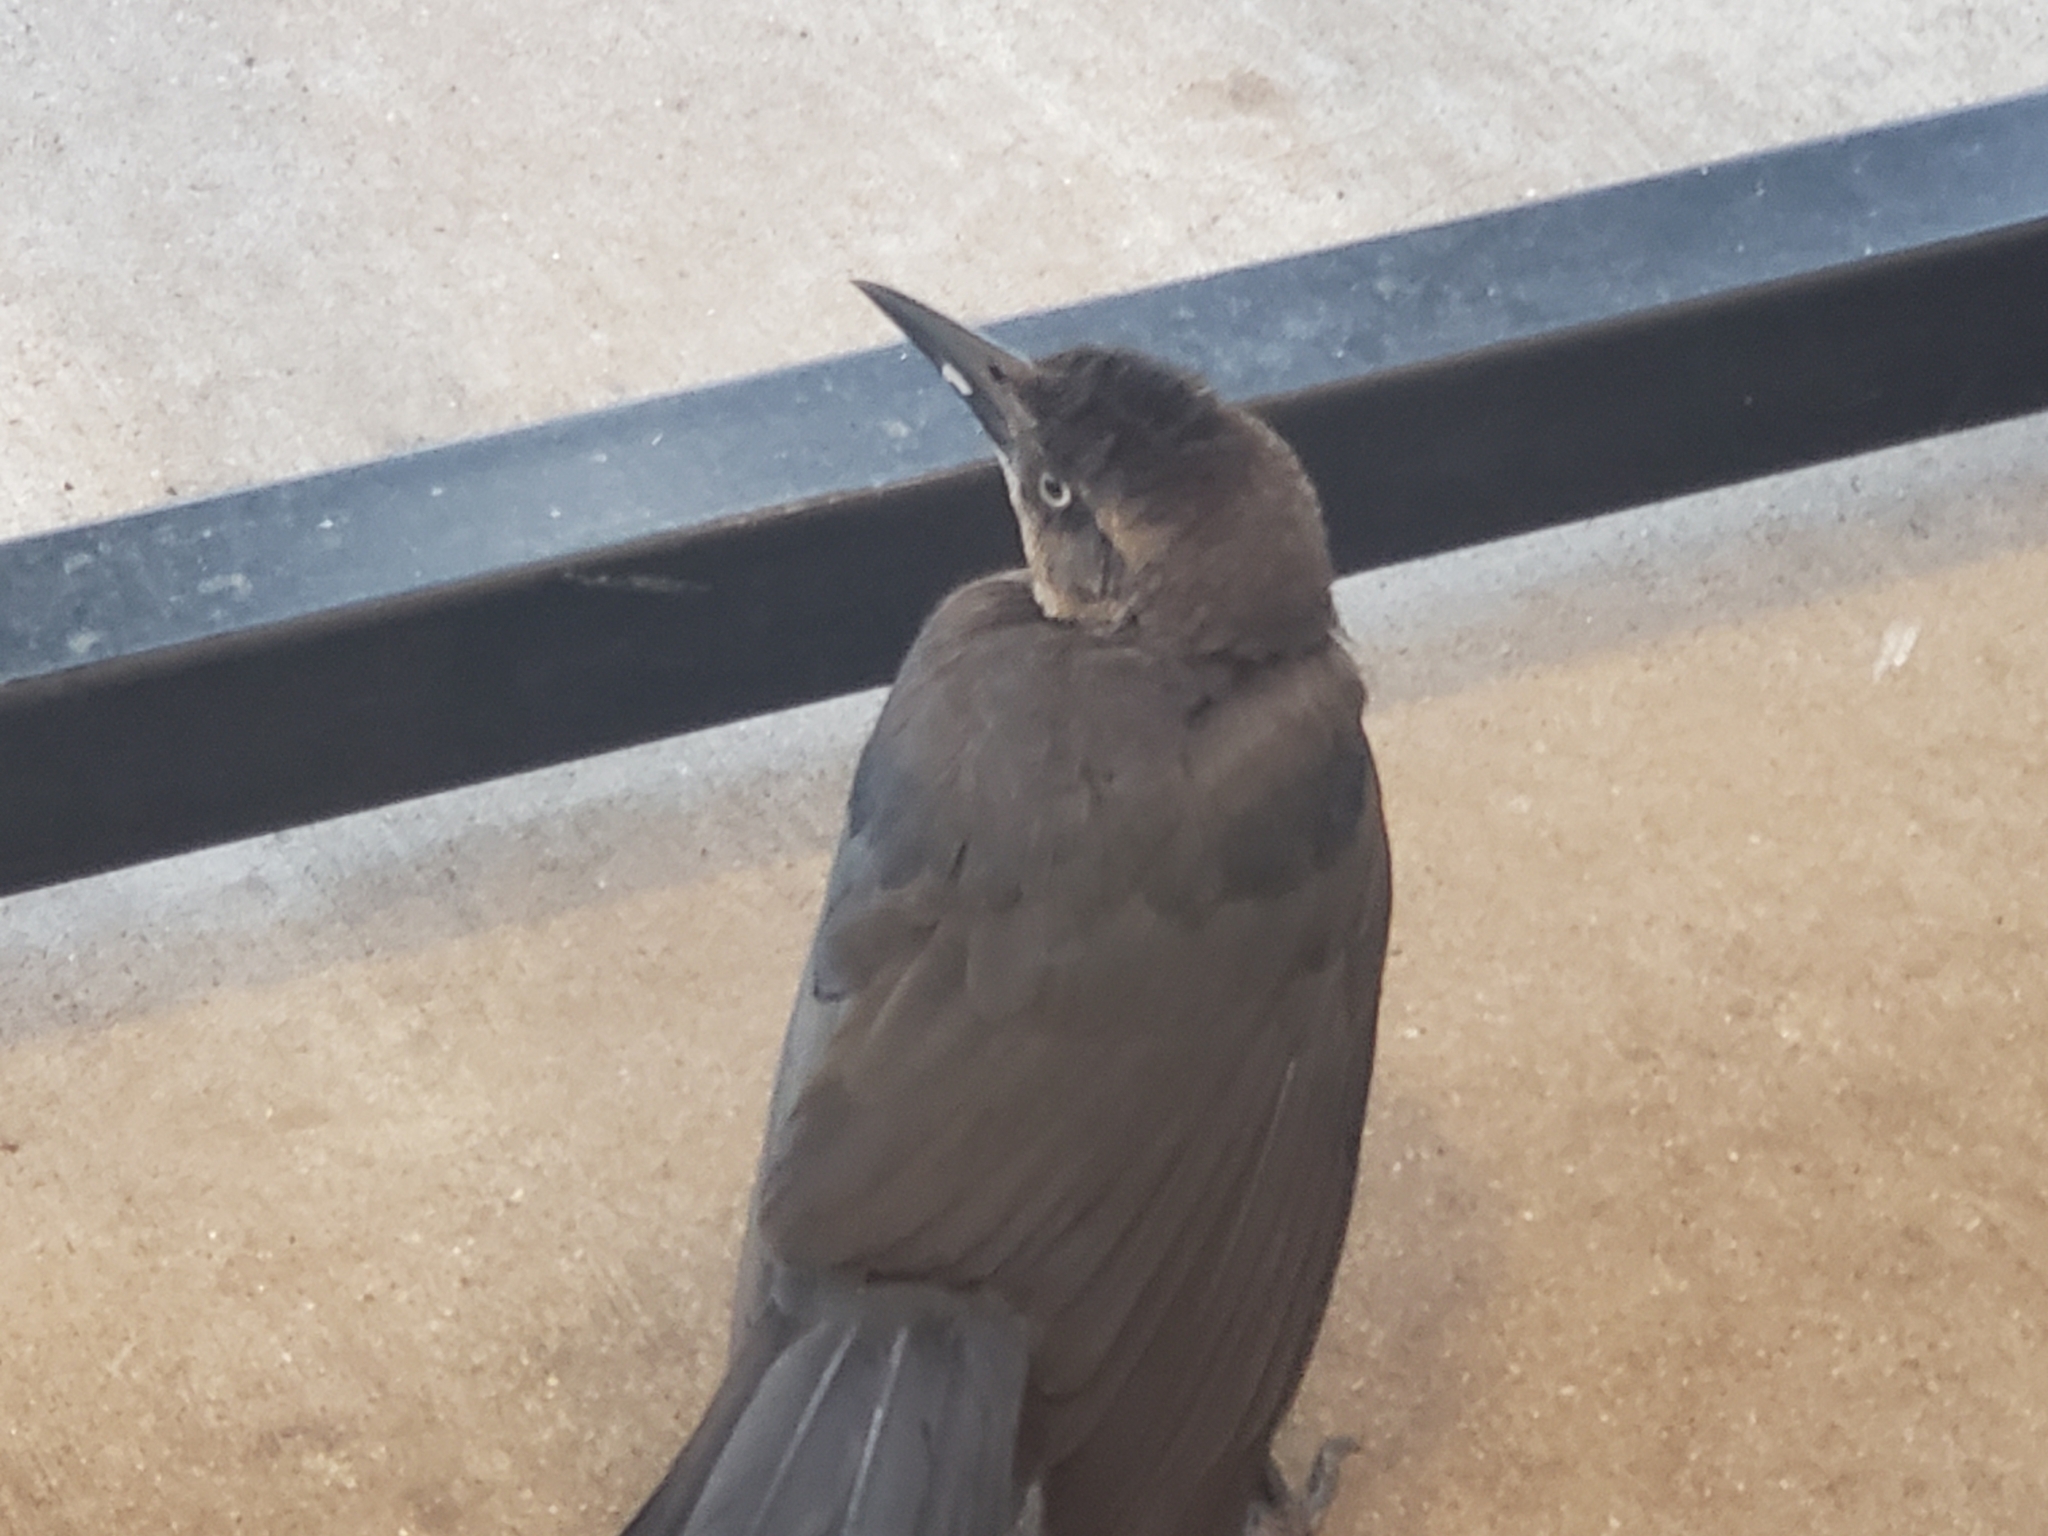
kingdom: Animalia
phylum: Chordata
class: Aves
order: Passeriformes
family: Icteridae
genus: Quiscalus
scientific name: Quiscalus mexicanus
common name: Great-tailed grackle
